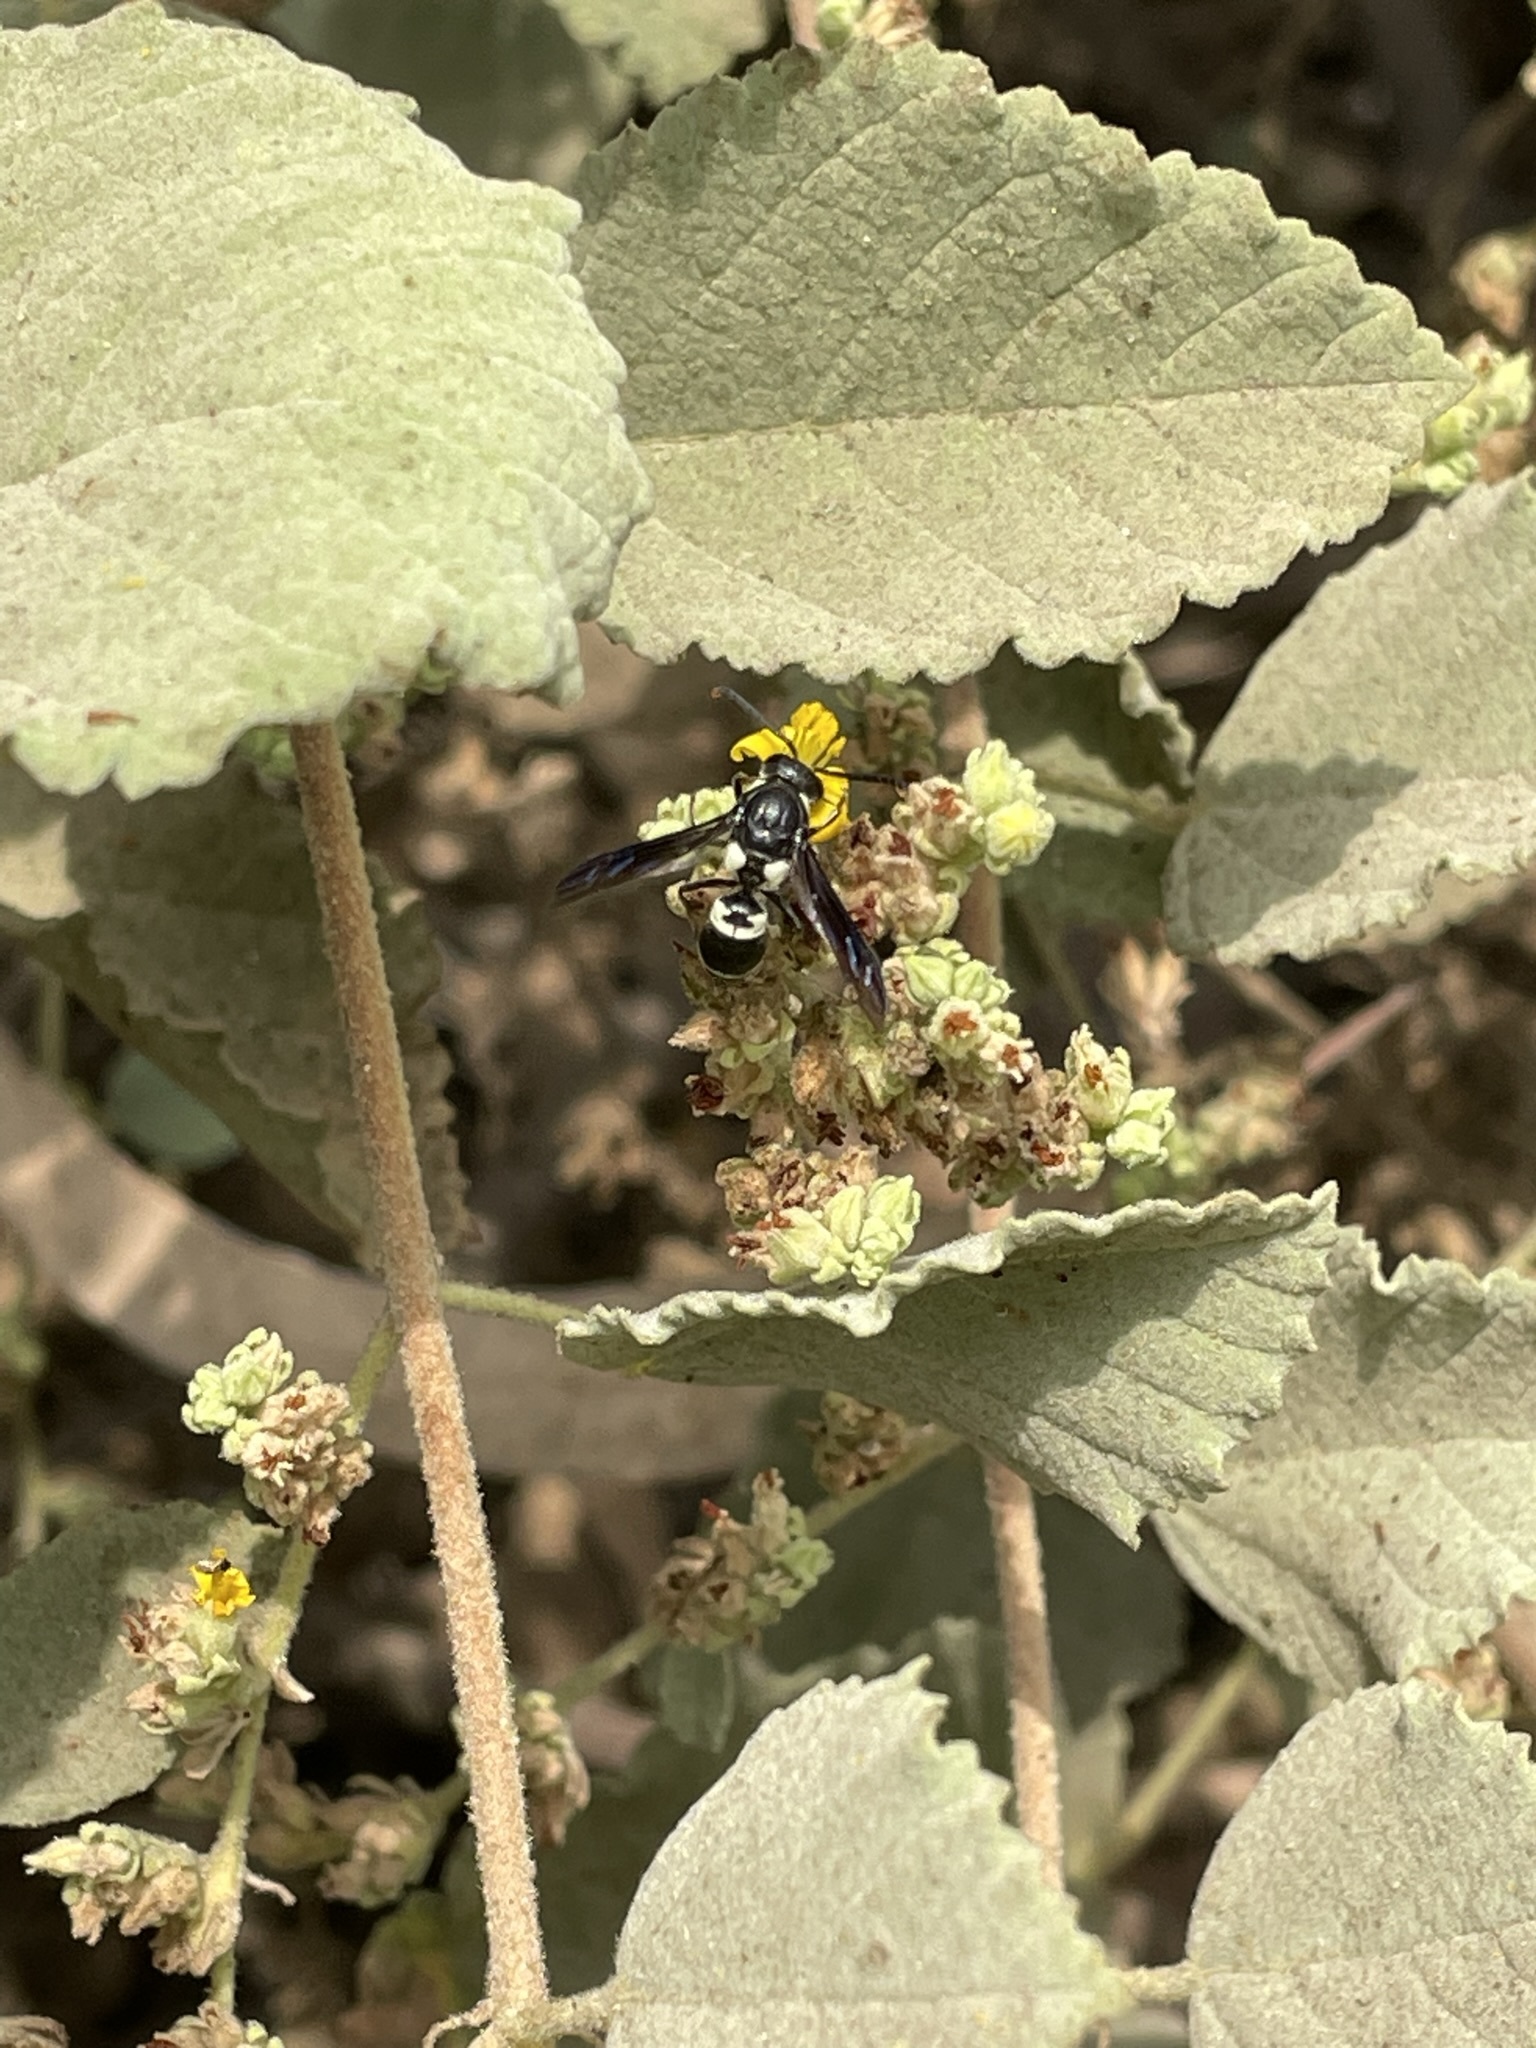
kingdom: Animalia
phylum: Arthropoda
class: Insecta
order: Hymenoptera
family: Eumenidae
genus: Monobia
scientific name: Monobia incarum
